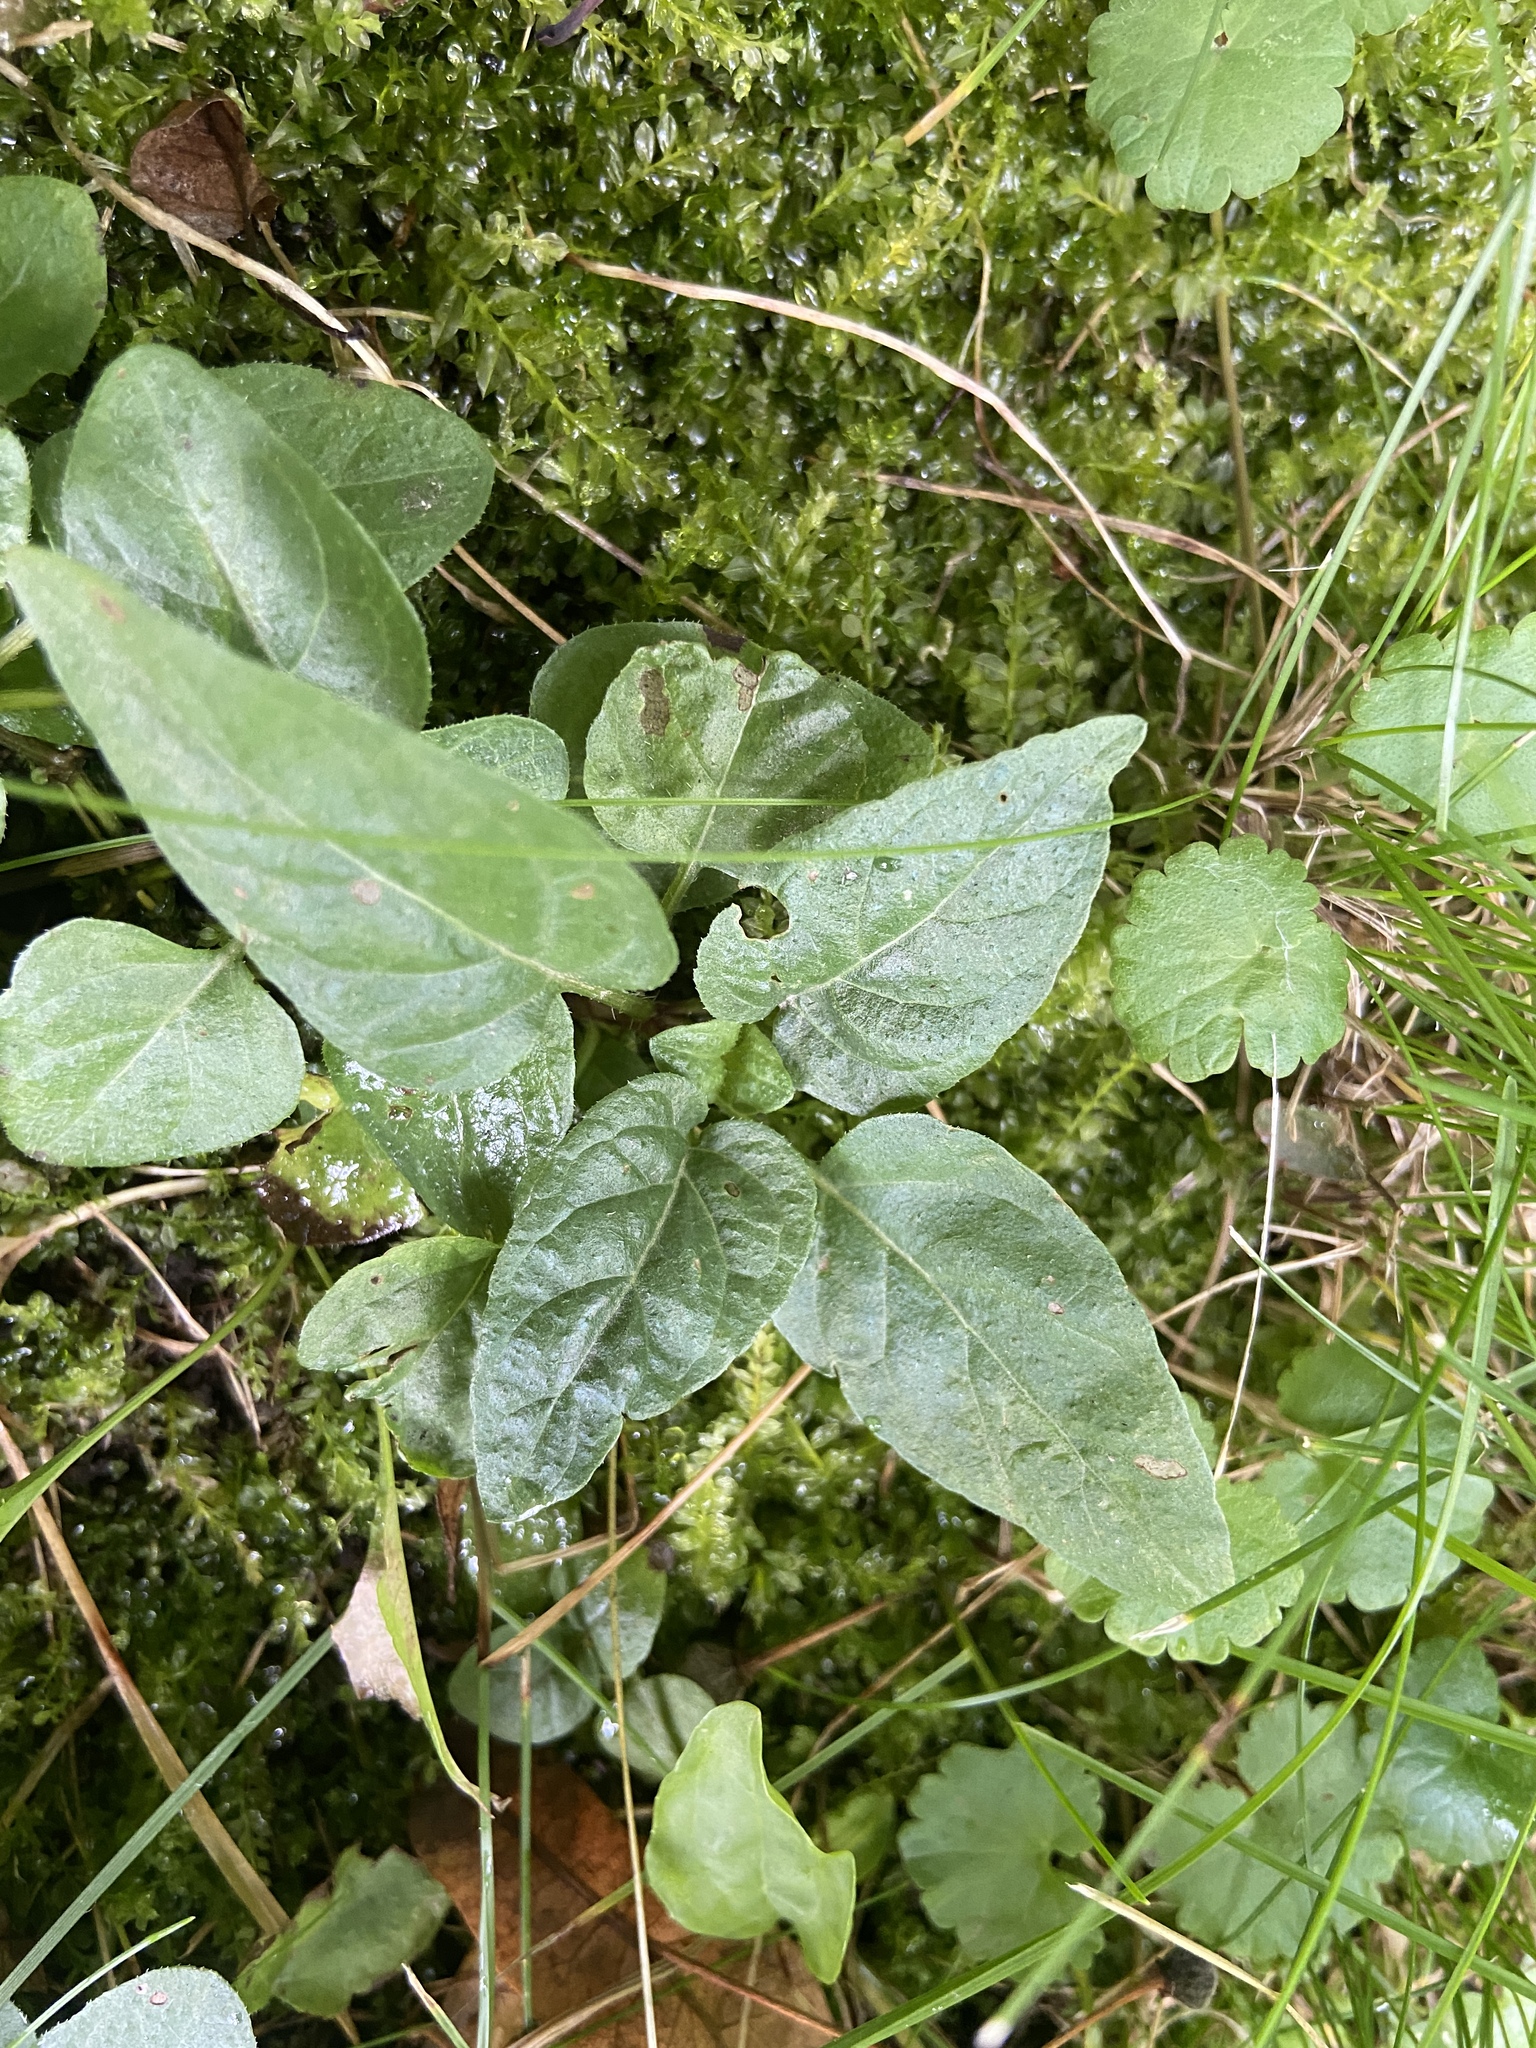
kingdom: Plantae
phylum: Tracheophyta
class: Magnoliopsida
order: Lamiales
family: Lamiaceae
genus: Prunella
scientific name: Prunella vulgaris
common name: Heal-all
